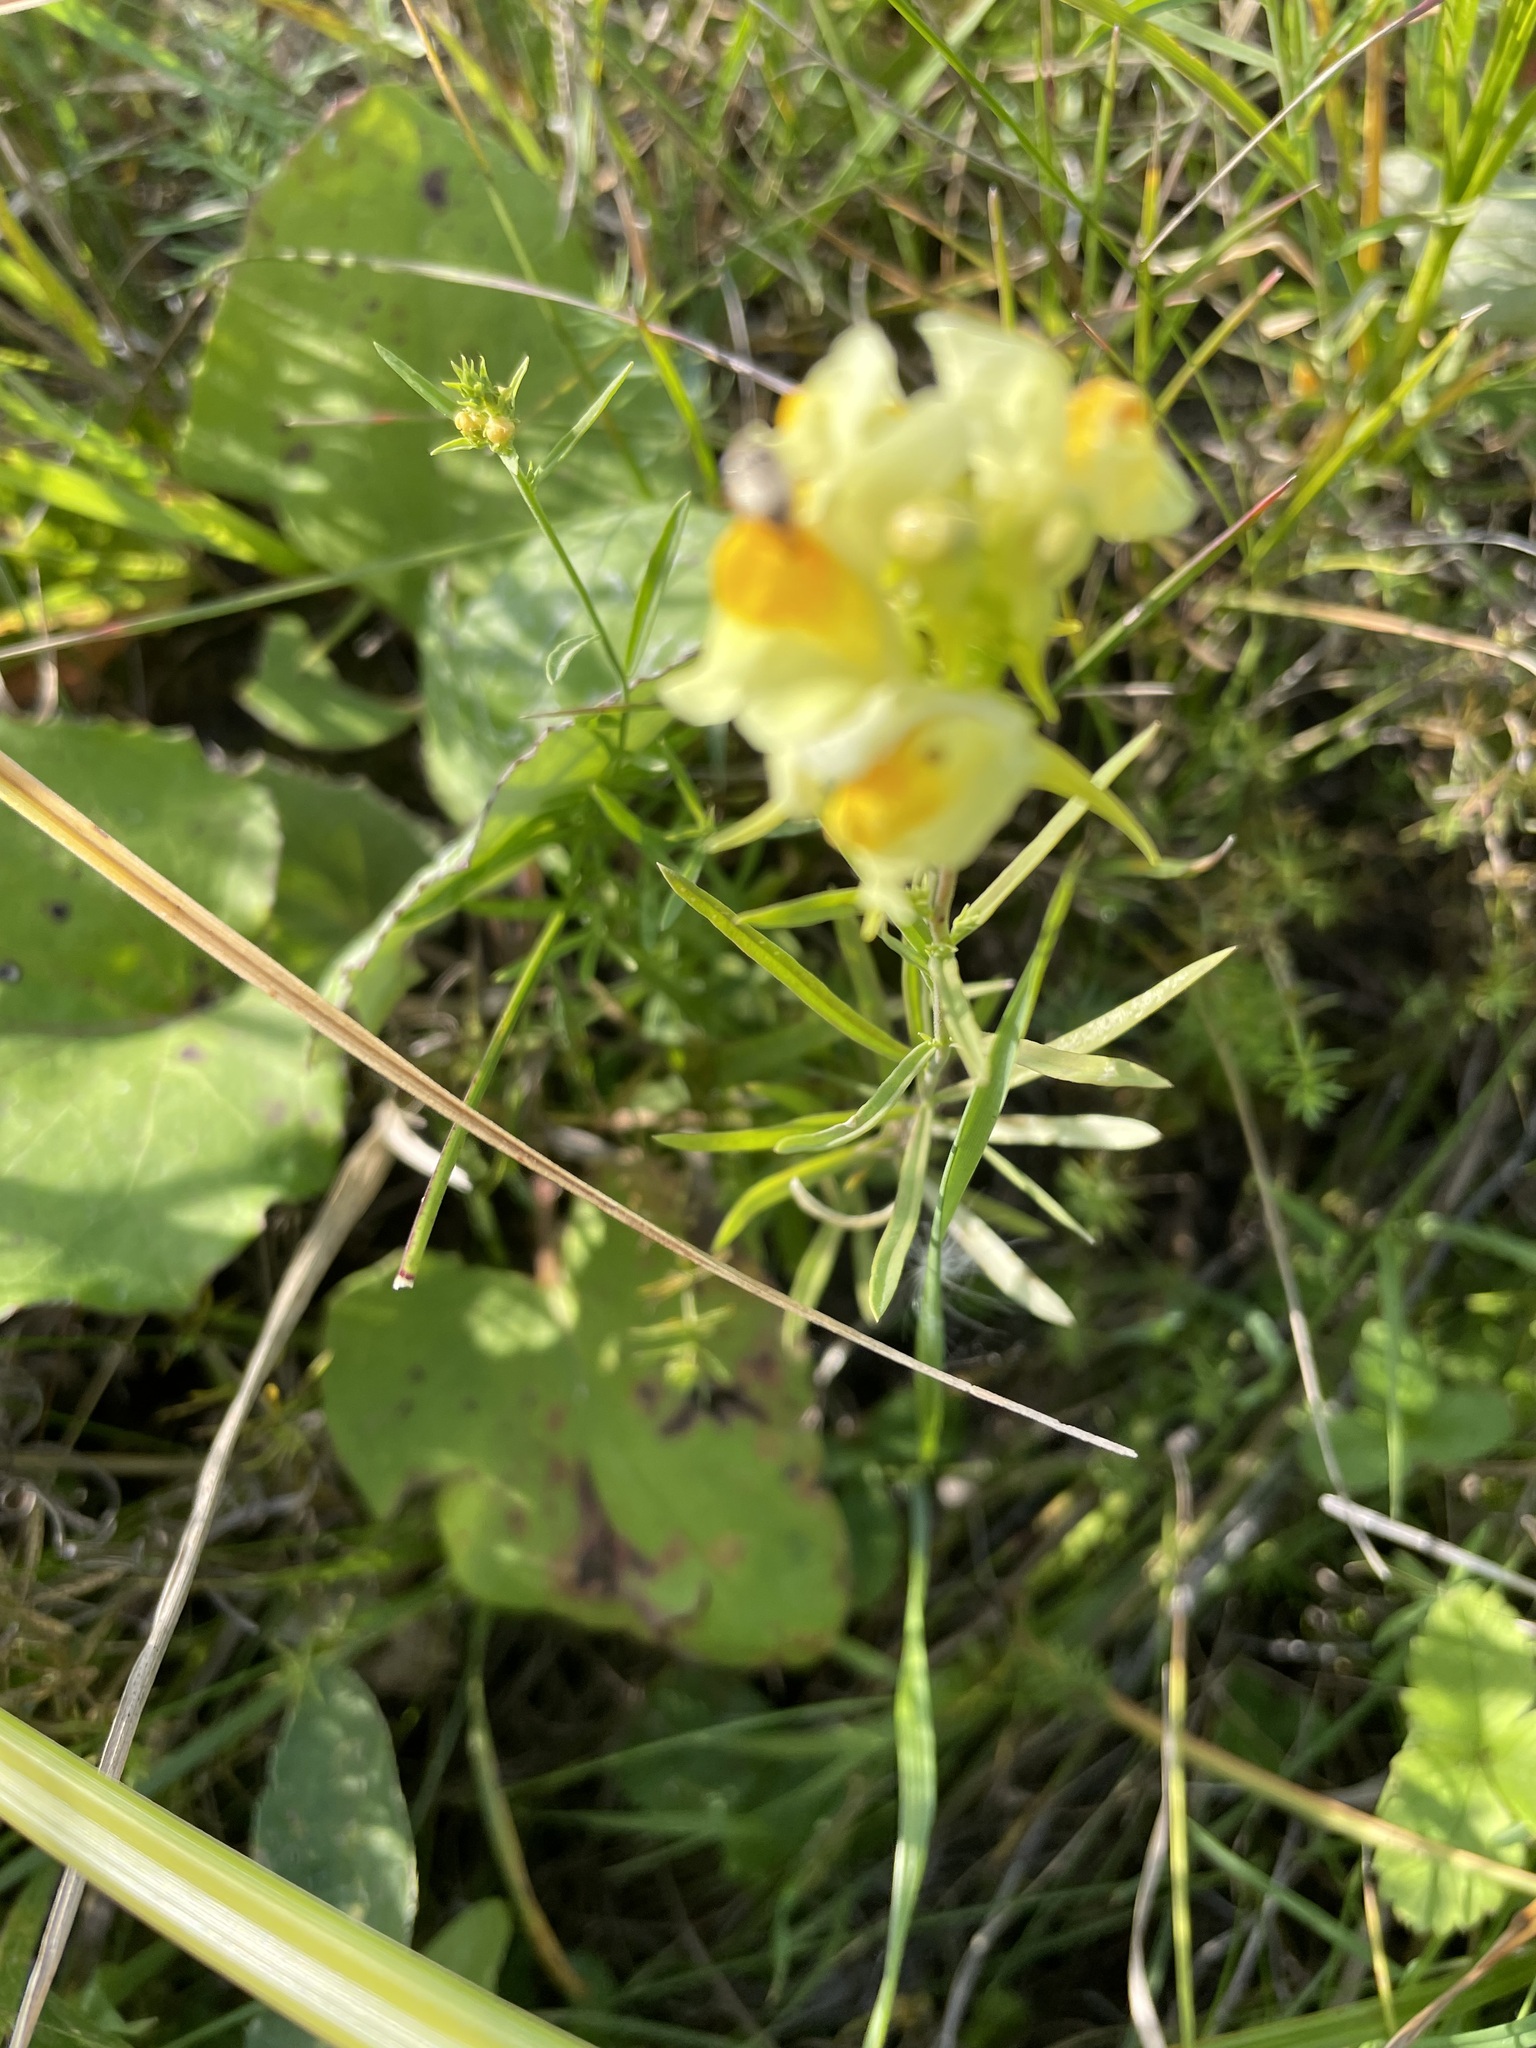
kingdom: Plantae
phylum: Tracheophyta
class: Magnoliopsida
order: Lamiales
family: Plantaginaceae
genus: Linaria
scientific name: Linaria vulgaris
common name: Butter and eggs
